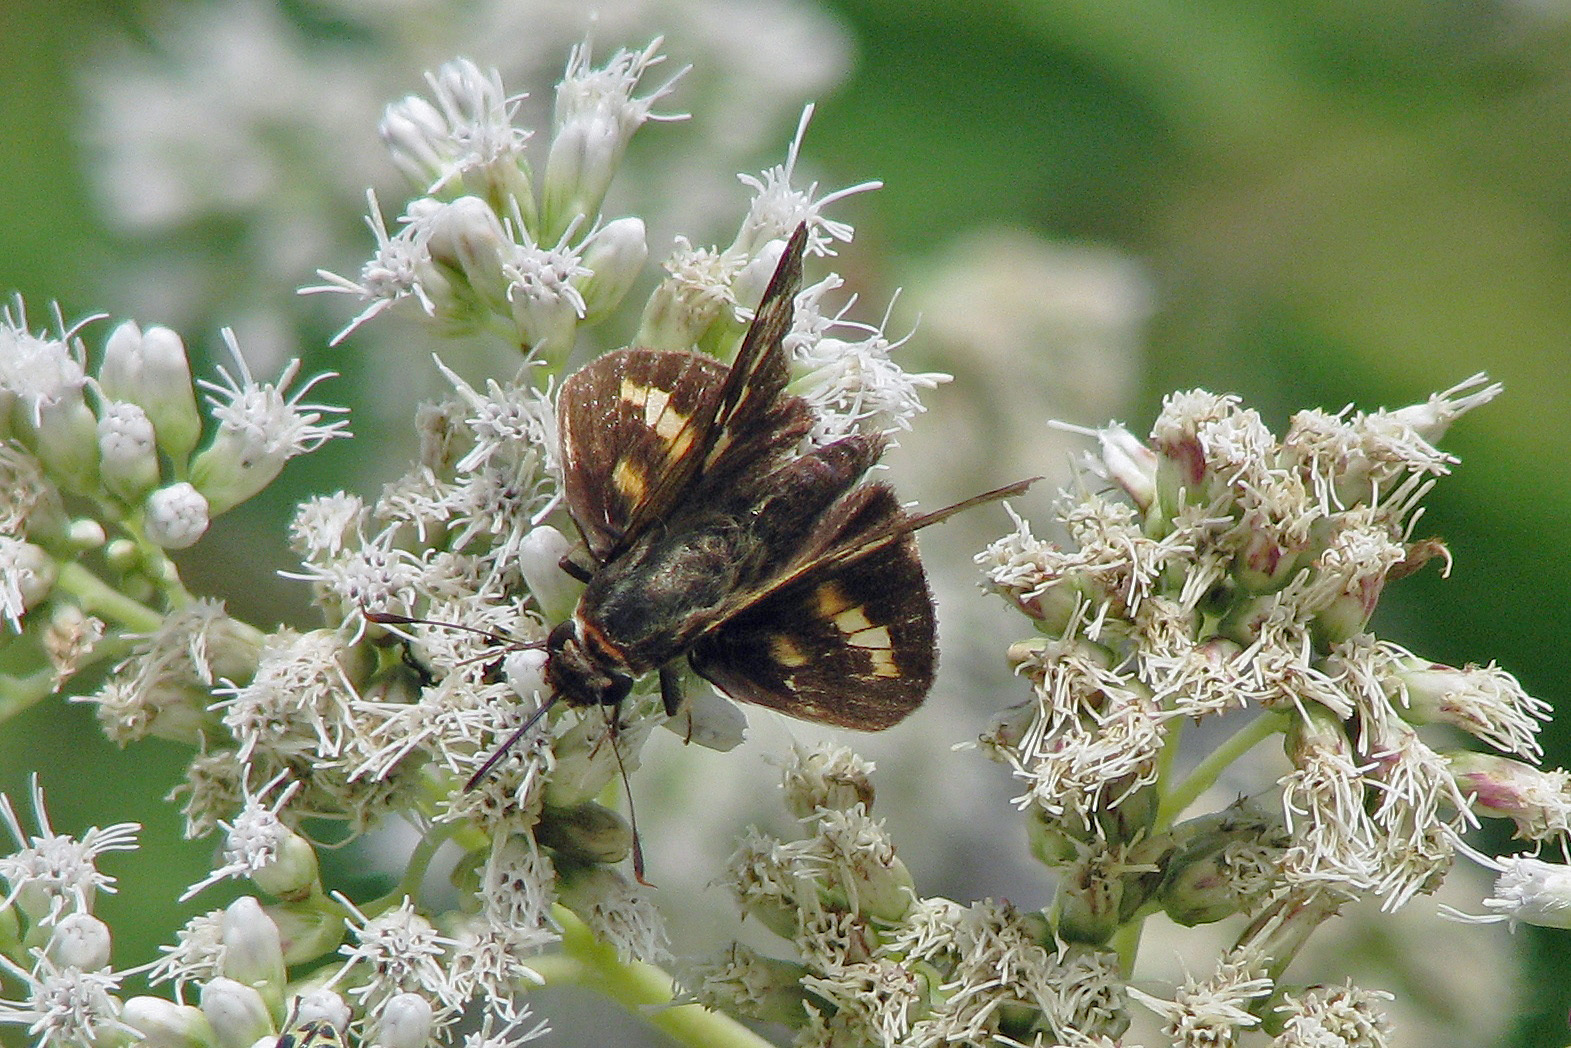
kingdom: Animalia
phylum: Arthropoda
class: Insecta
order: Lepidoptera
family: Hesperiidae
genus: Propertius
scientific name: Propertius propertius
